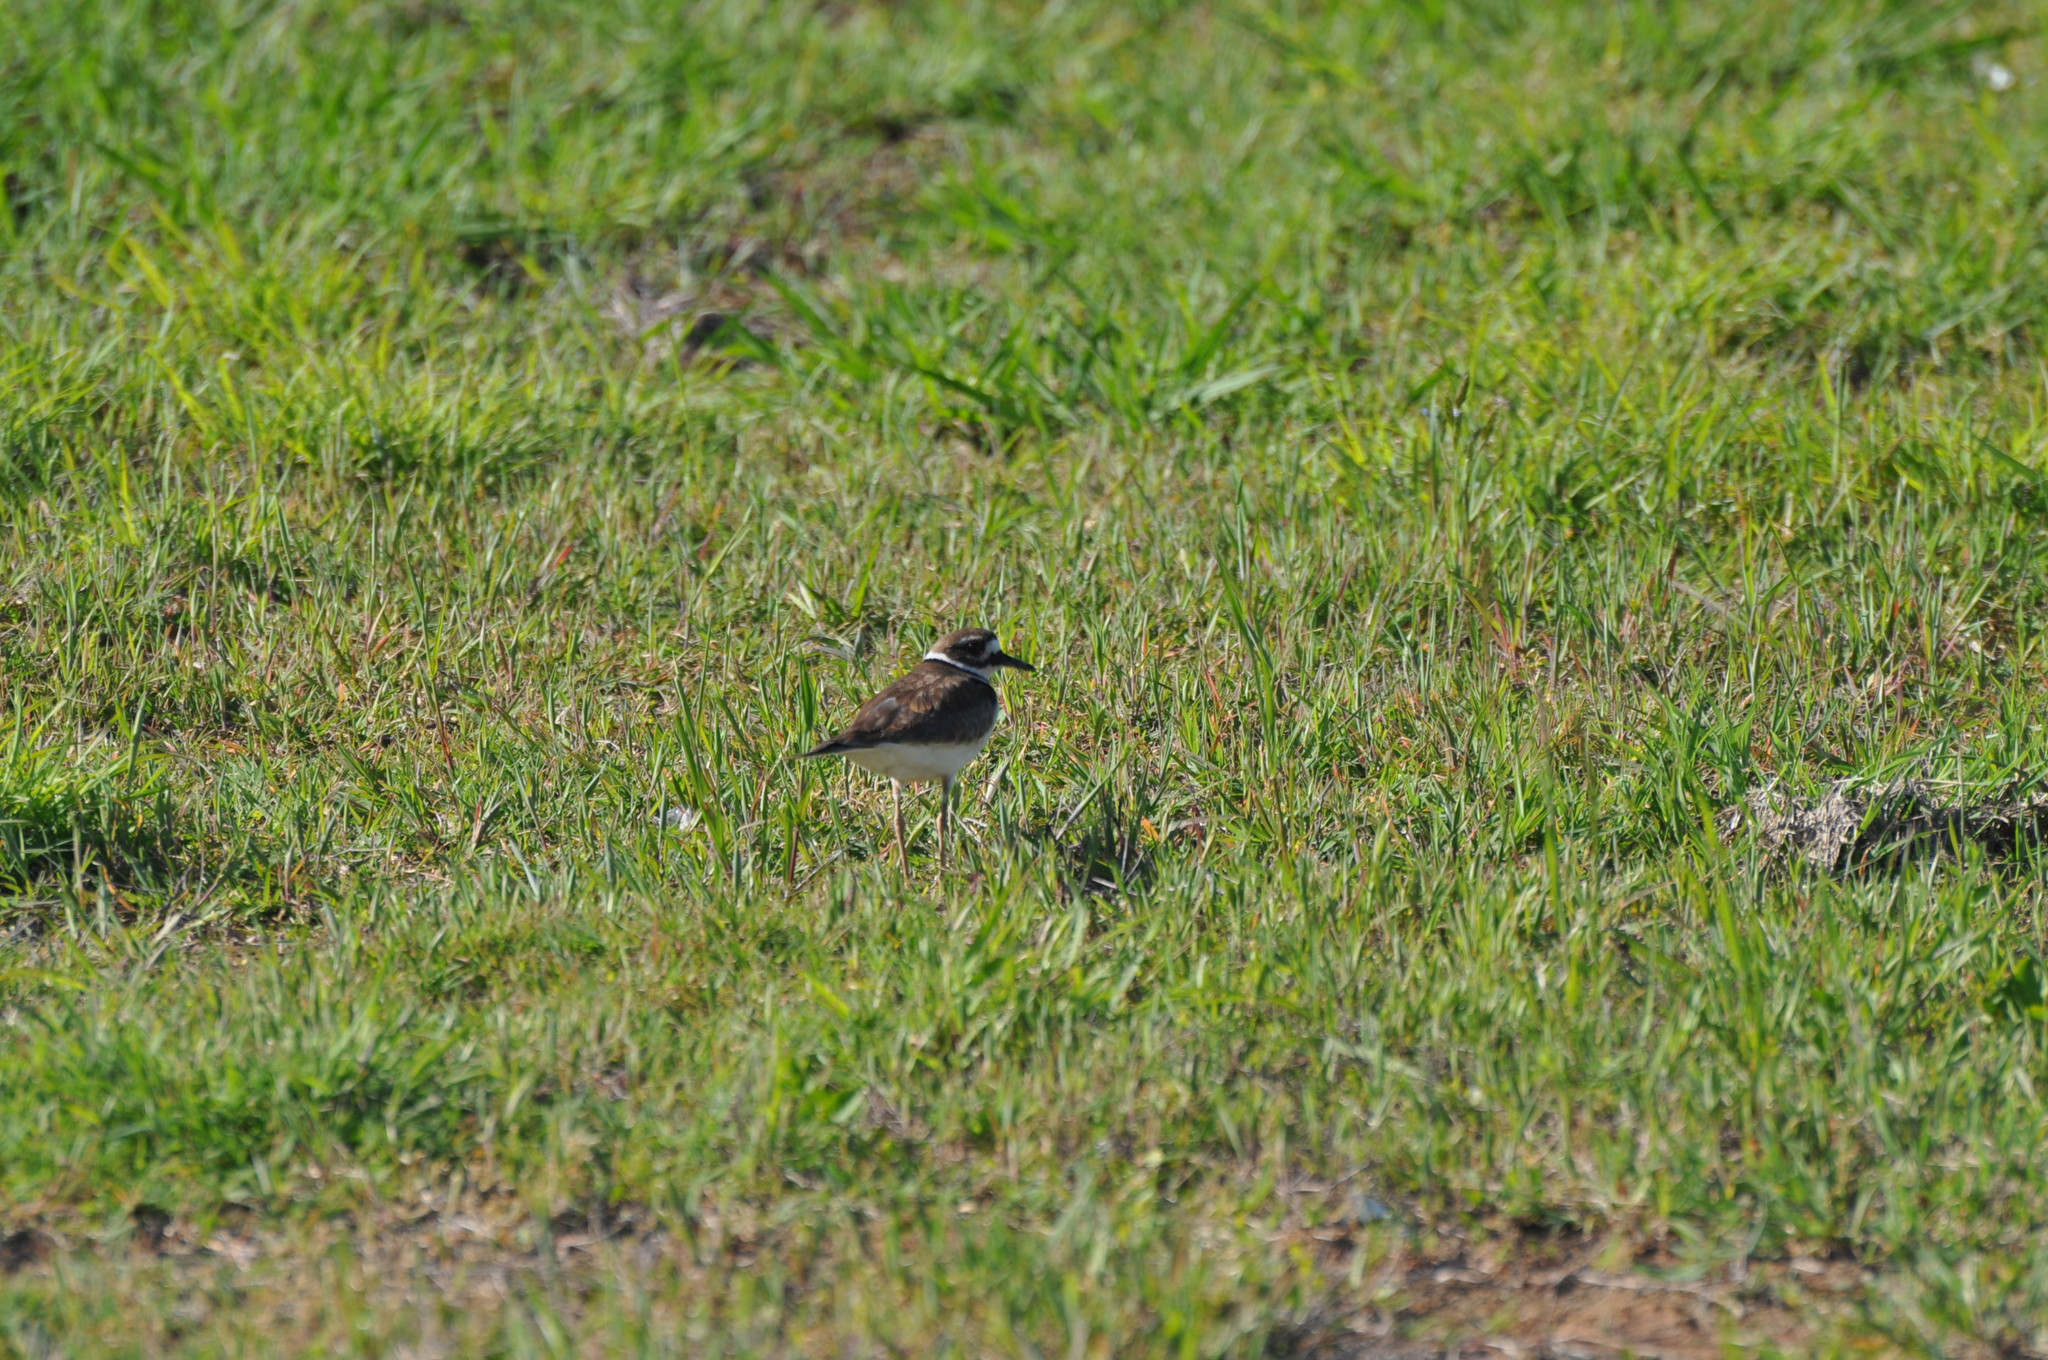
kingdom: Animalia
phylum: Chordata
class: Aves
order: Charadriiformes
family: Charadriidae
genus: Charadrius
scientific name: Charadrius vociferus
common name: Killdeer
